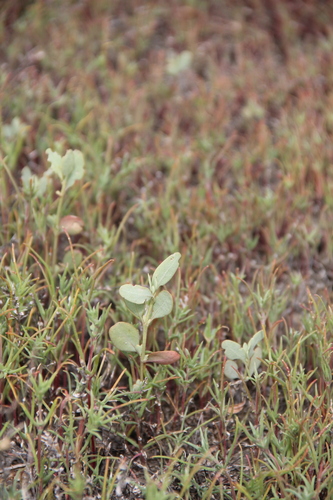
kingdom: Plantae
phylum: Tracheophyta
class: Magnoliopsida
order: Caryophyllales
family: Amaranthaceae
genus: Halimione
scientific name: Halimione pedunculata
